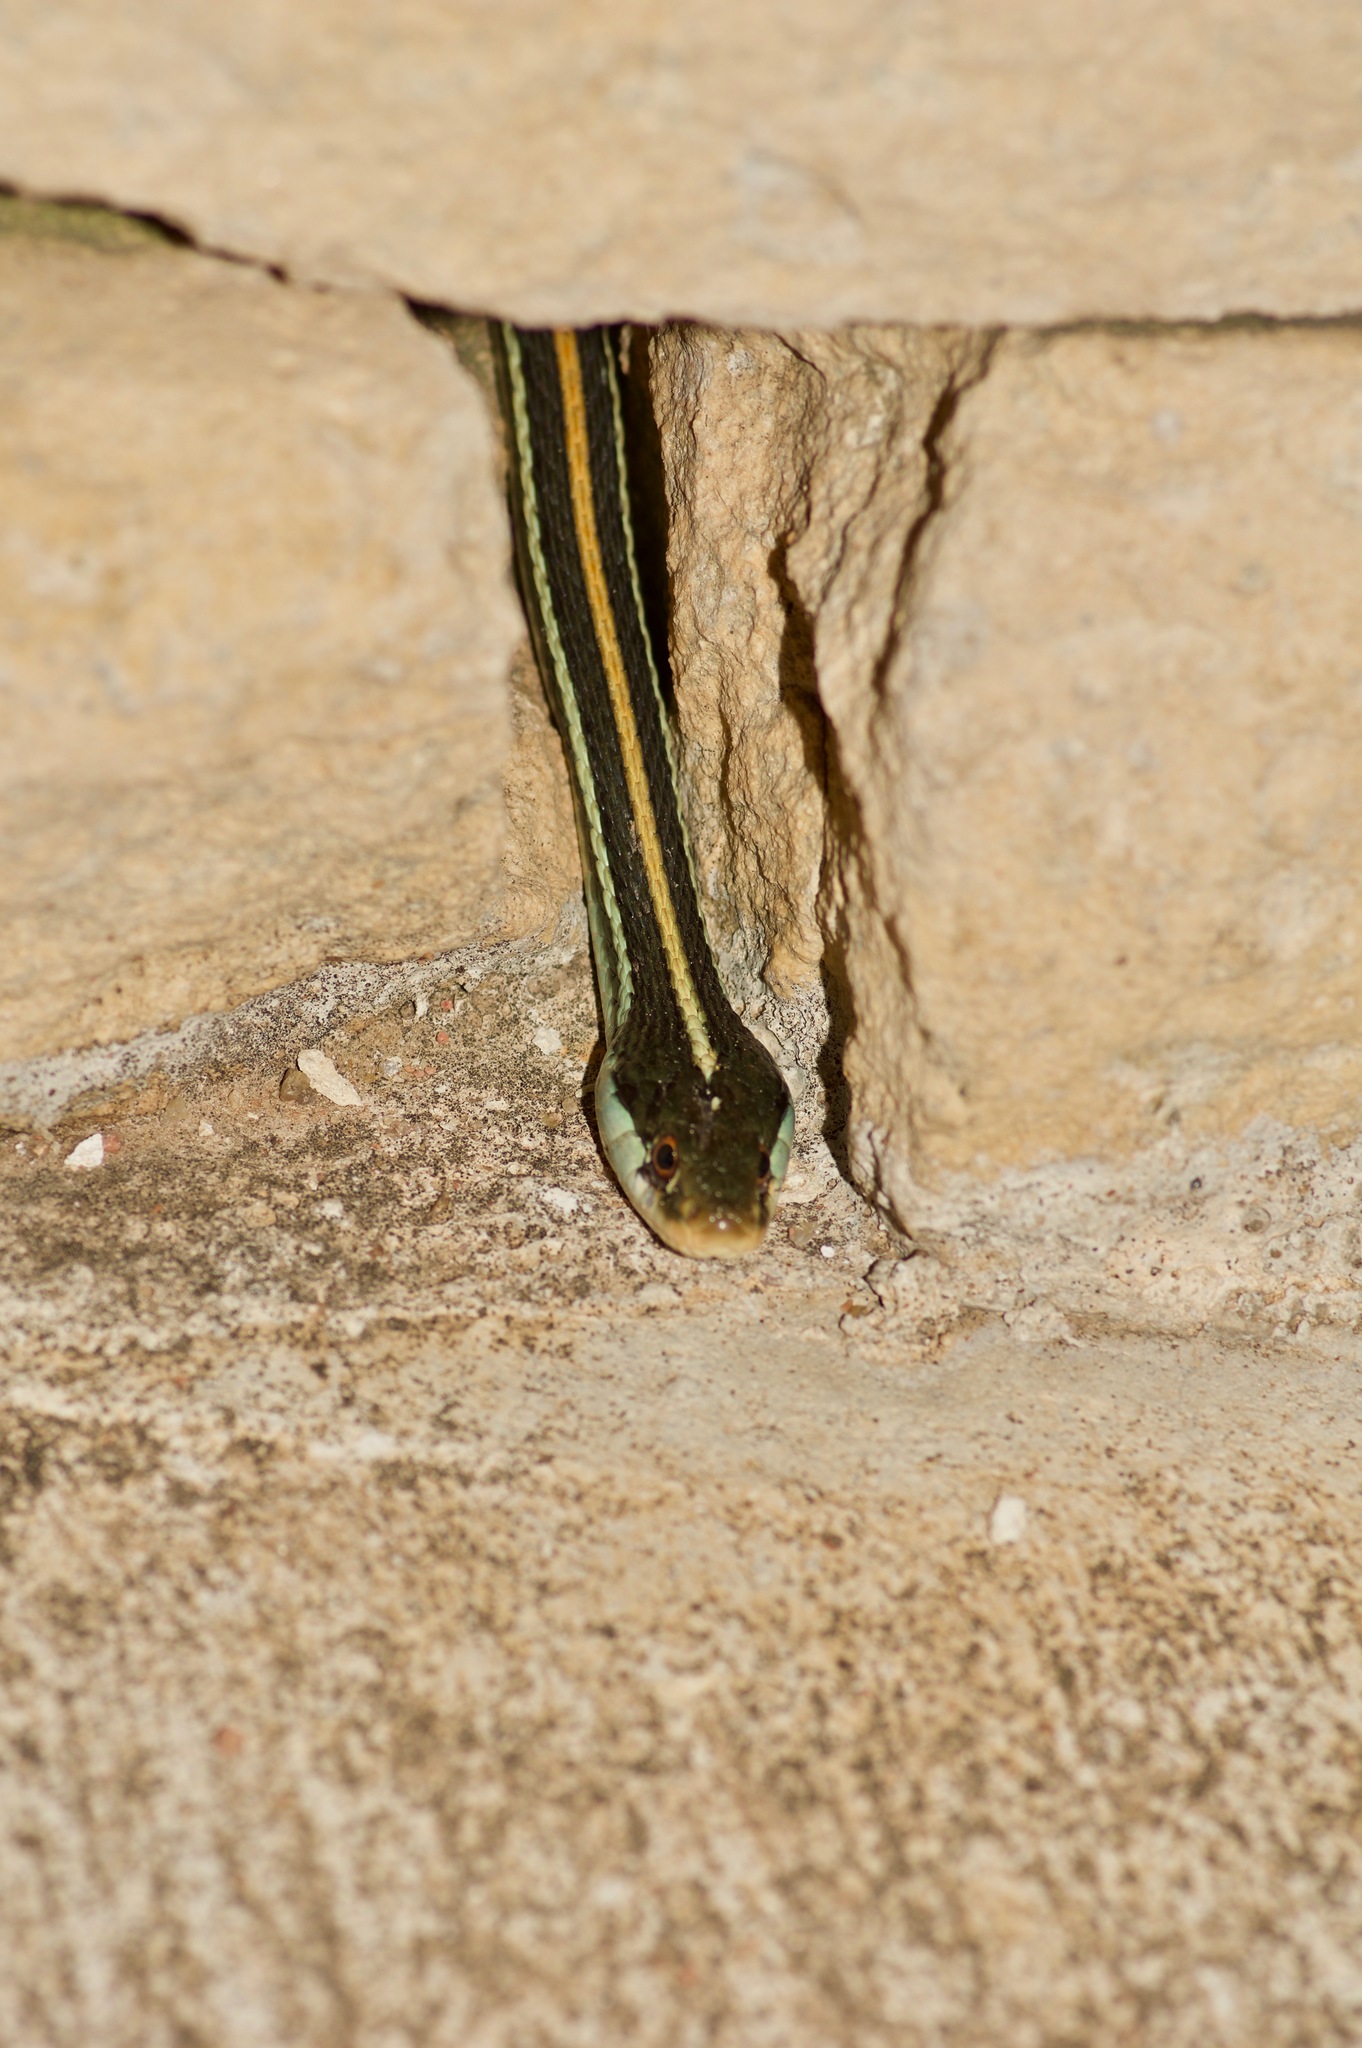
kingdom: Animalia
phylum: Chordata
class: Squamata
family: Colubridae
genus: Thamnophis
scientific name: Thamnophis proximus
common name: Western ribbon snake
